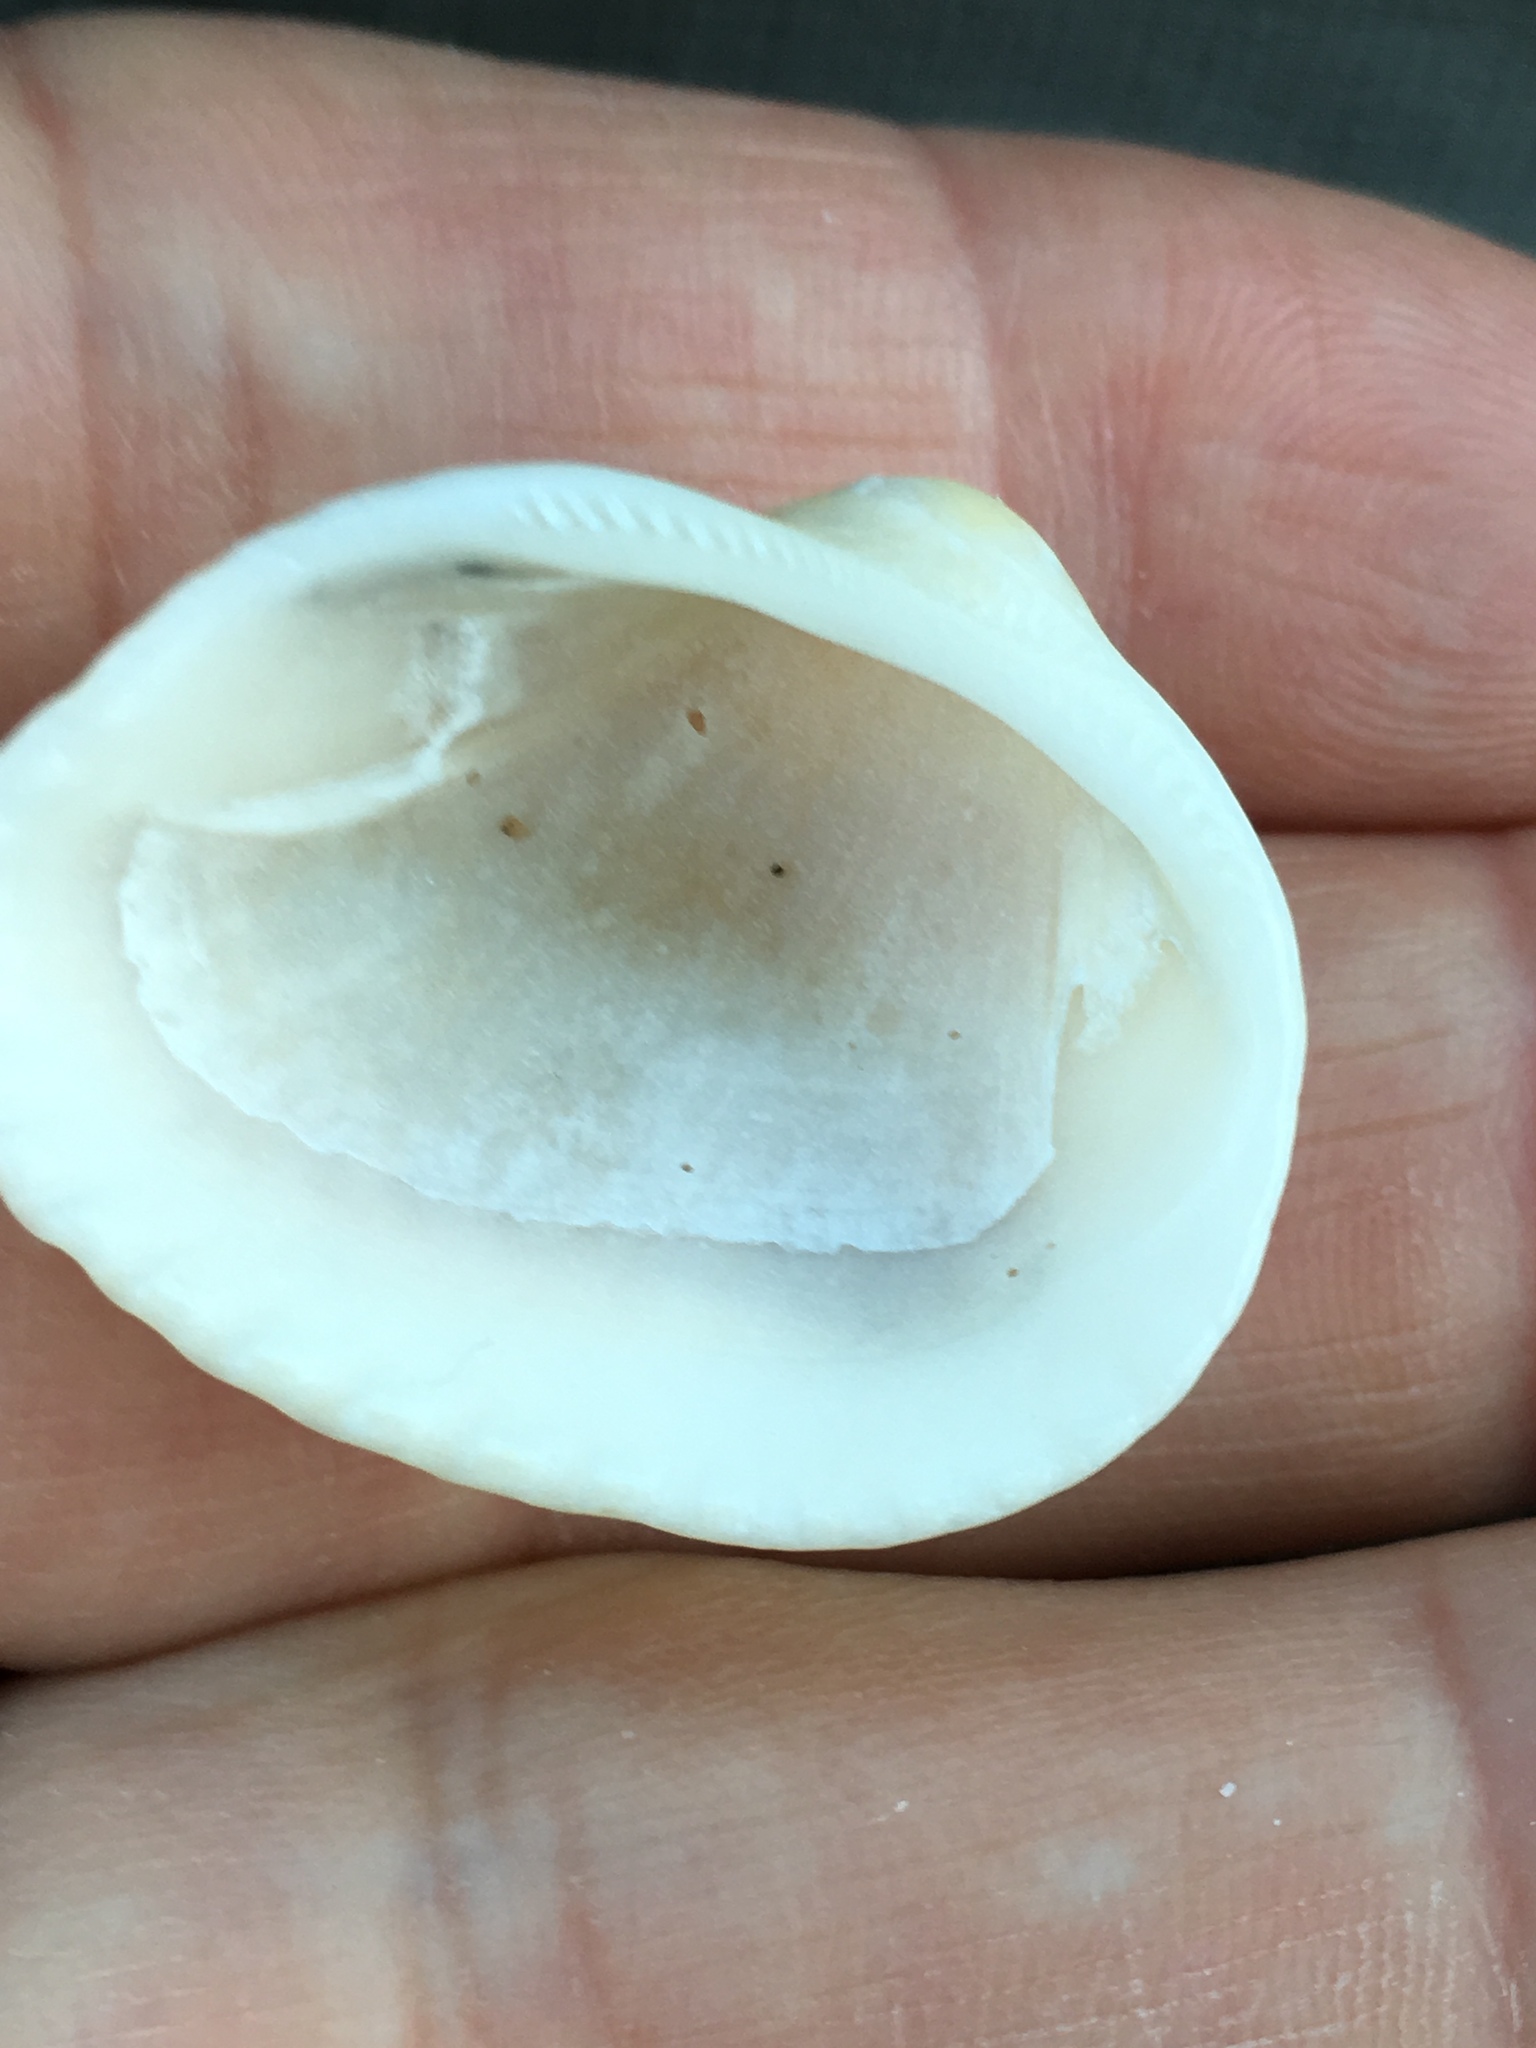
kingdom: Animalia
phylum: Mollusca
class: Bivalvia
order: Arcida
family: Noetiidae
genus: Noetia
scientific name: Noetia ponderosa
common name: Ponderous ark
